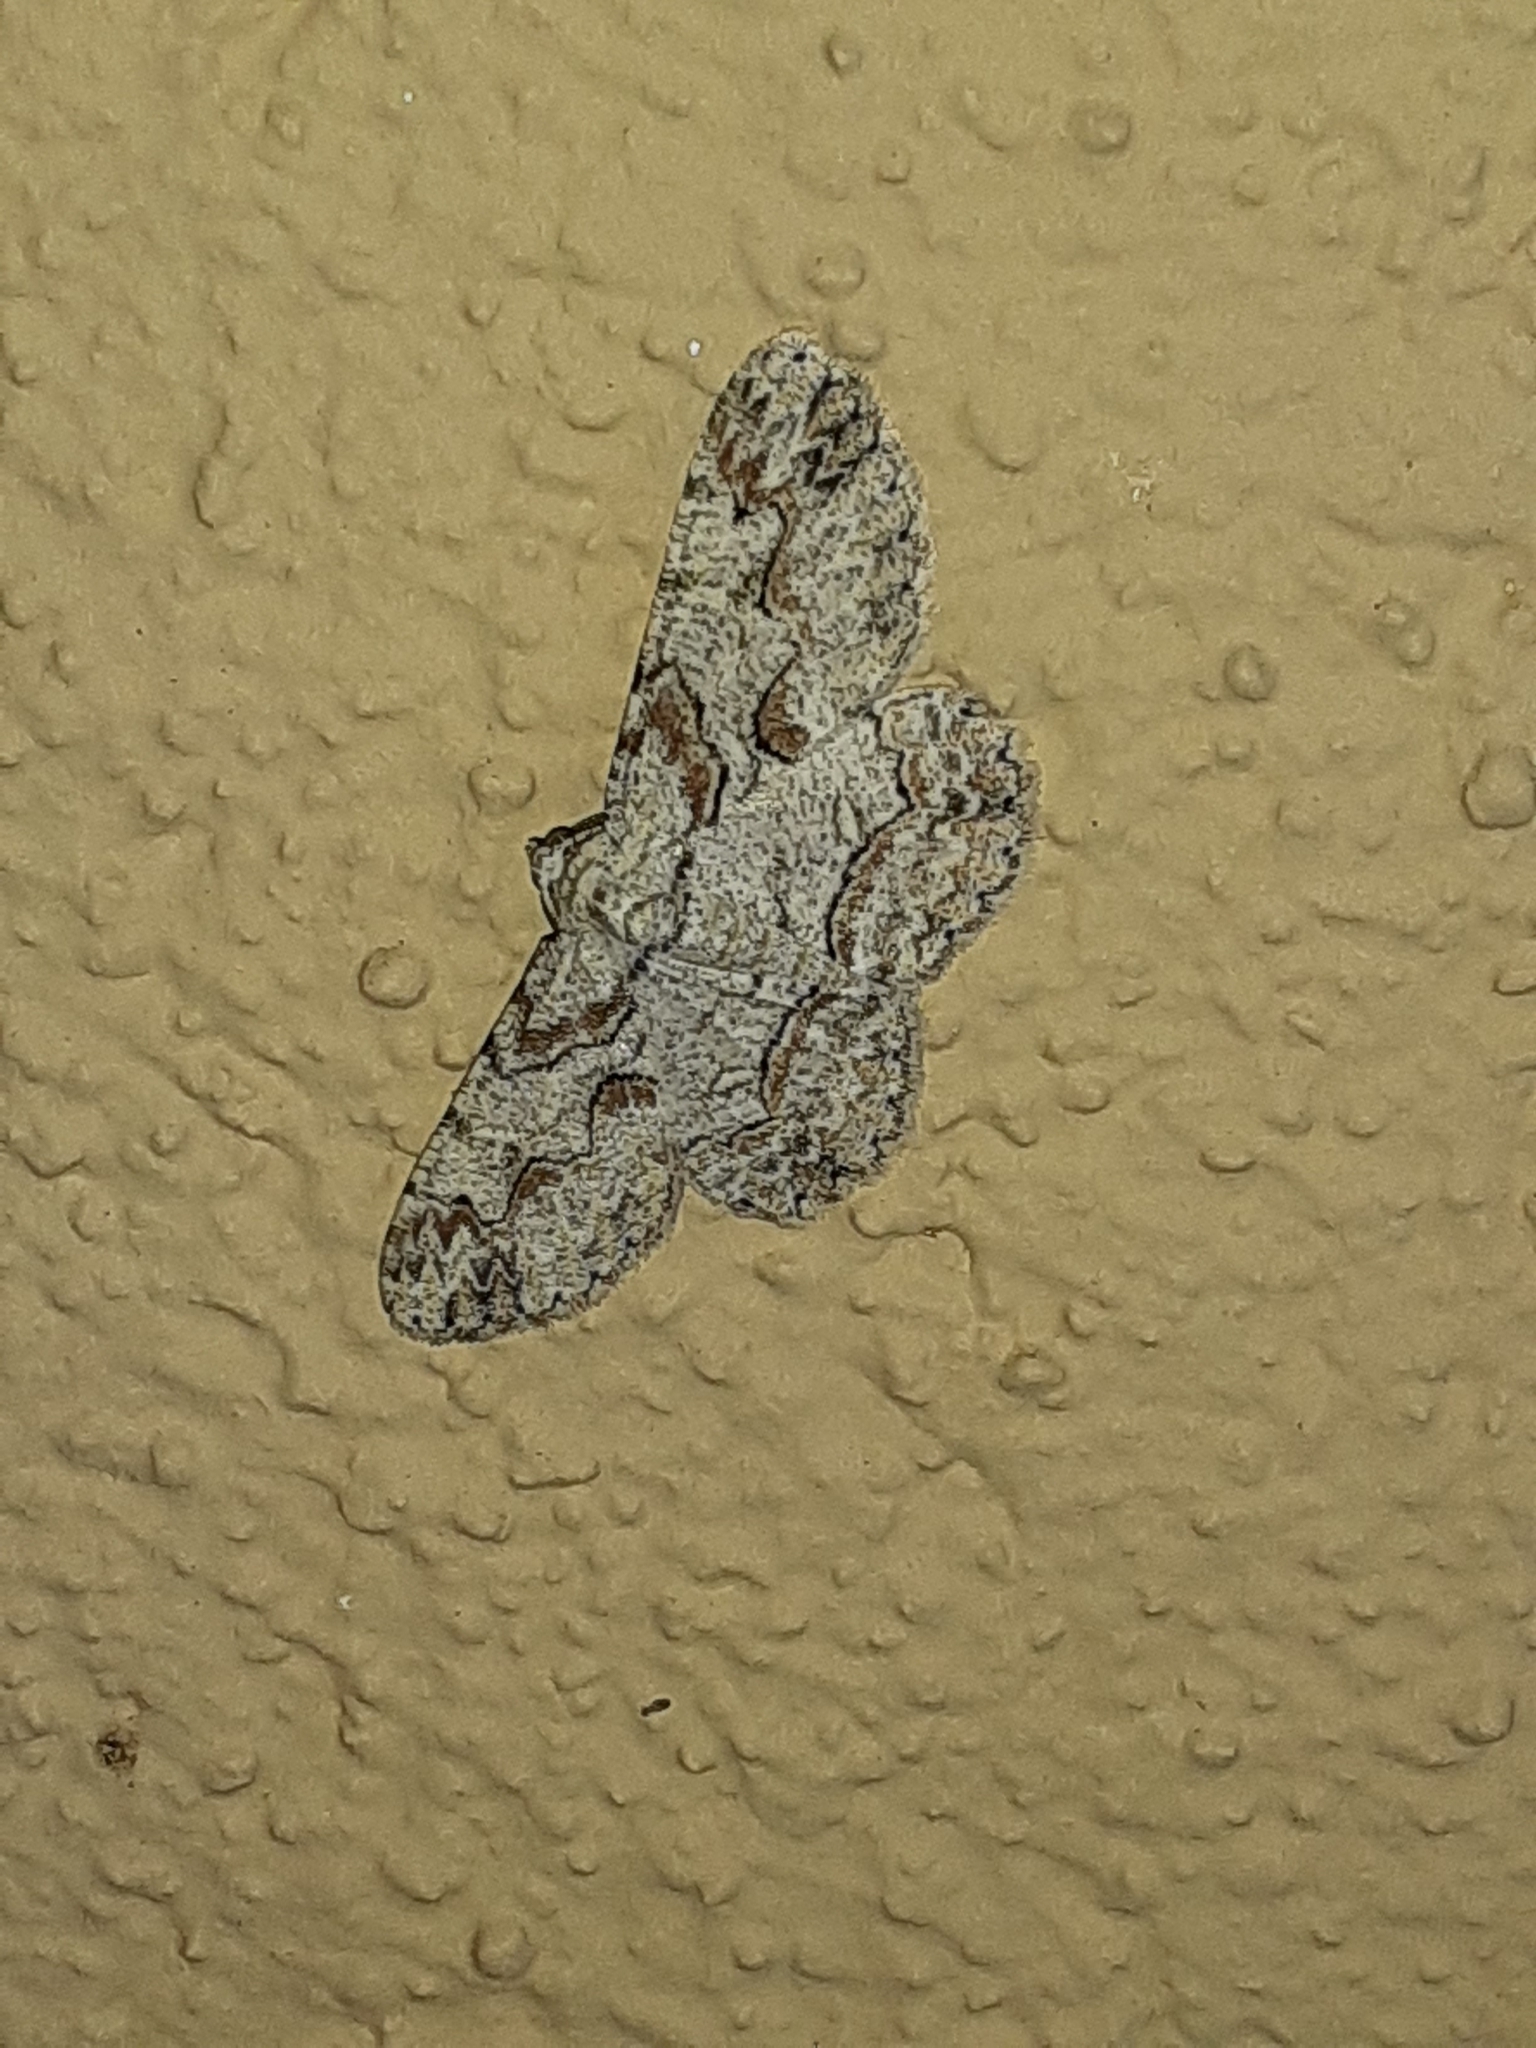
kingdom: Animalia
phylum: Arthropoda
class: Insecta
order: Lepidoptera
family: Geometridae
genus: Iridopsis
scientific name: Iridopsis defectaria
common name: Brown-shaded gray
